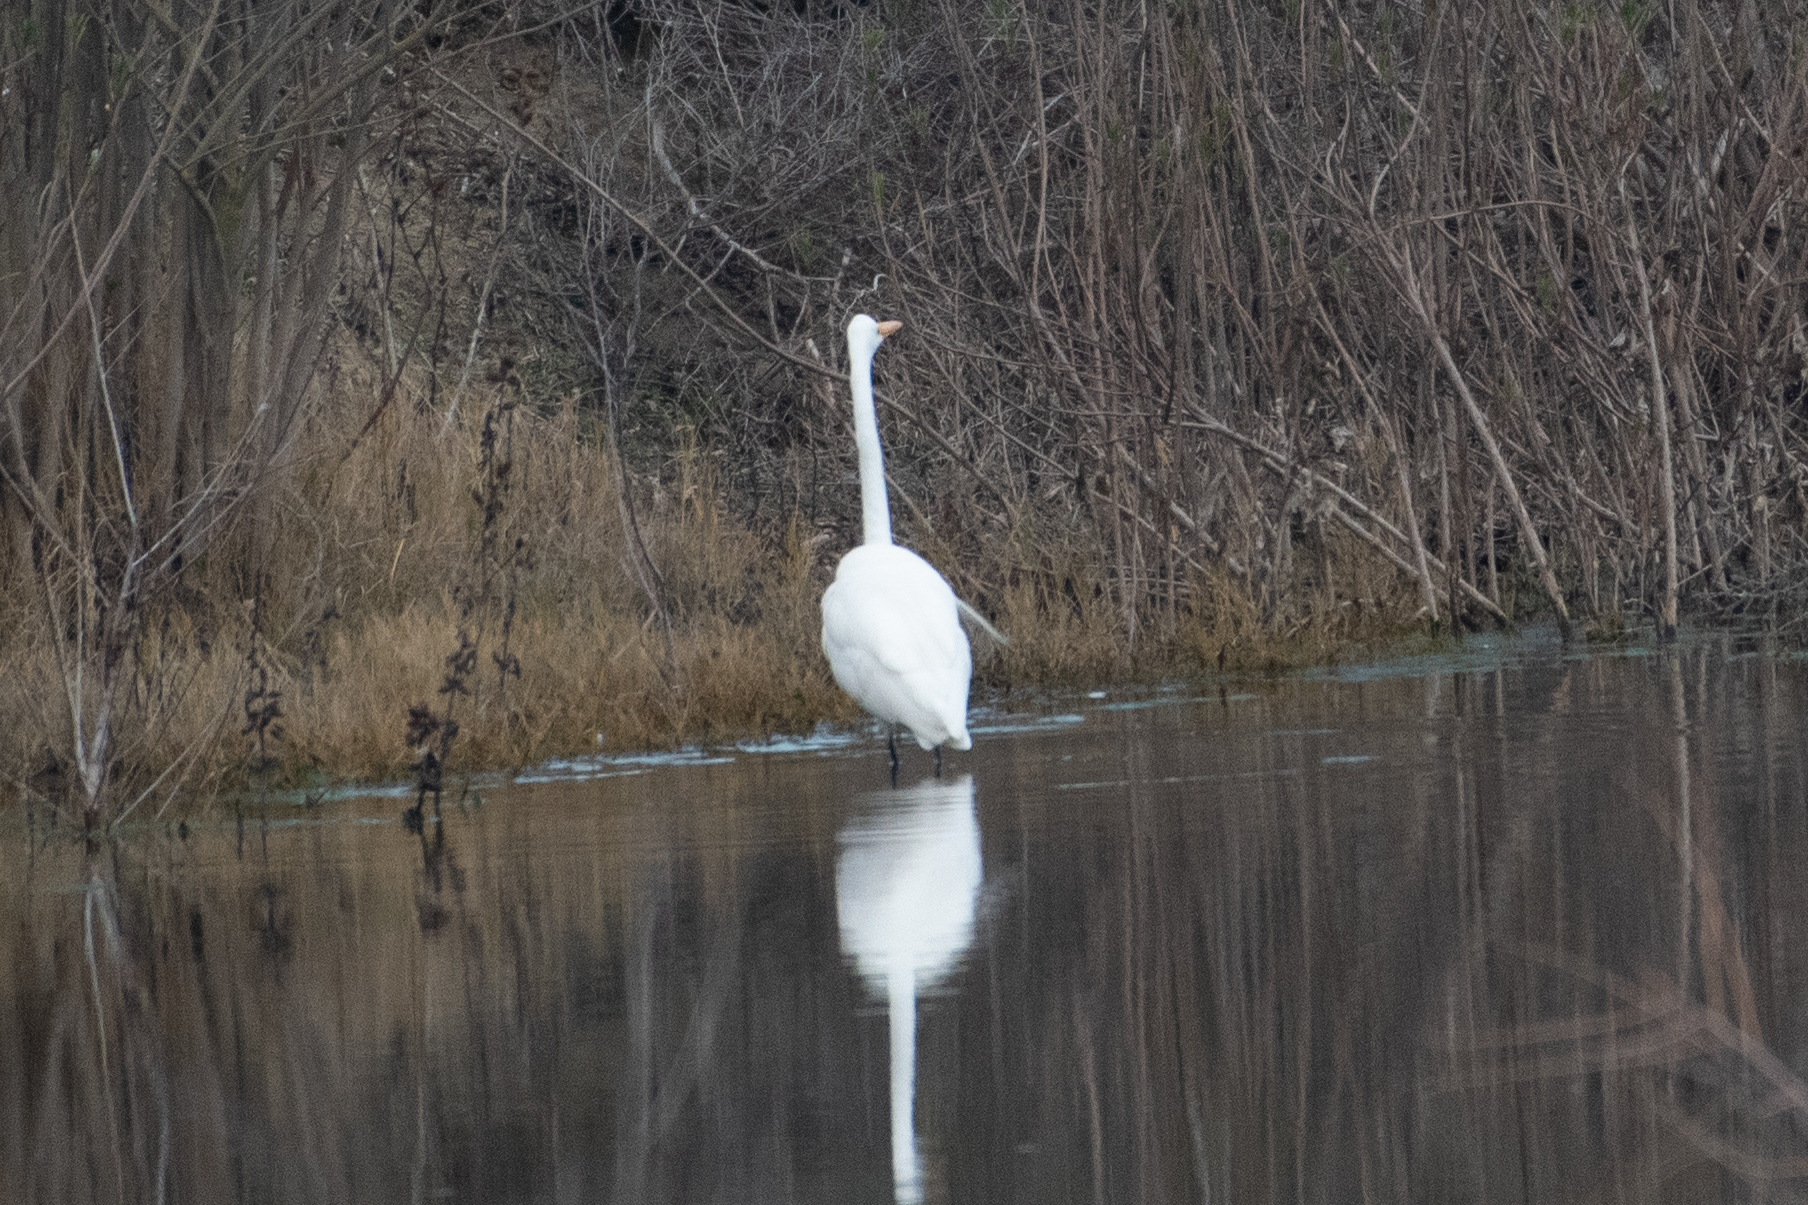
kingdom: Animalia
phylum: Chordata
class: Aves
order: Pelecaniformes
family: Ardeidae
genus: Ardea
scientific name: Ardea alba
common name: Great egret
